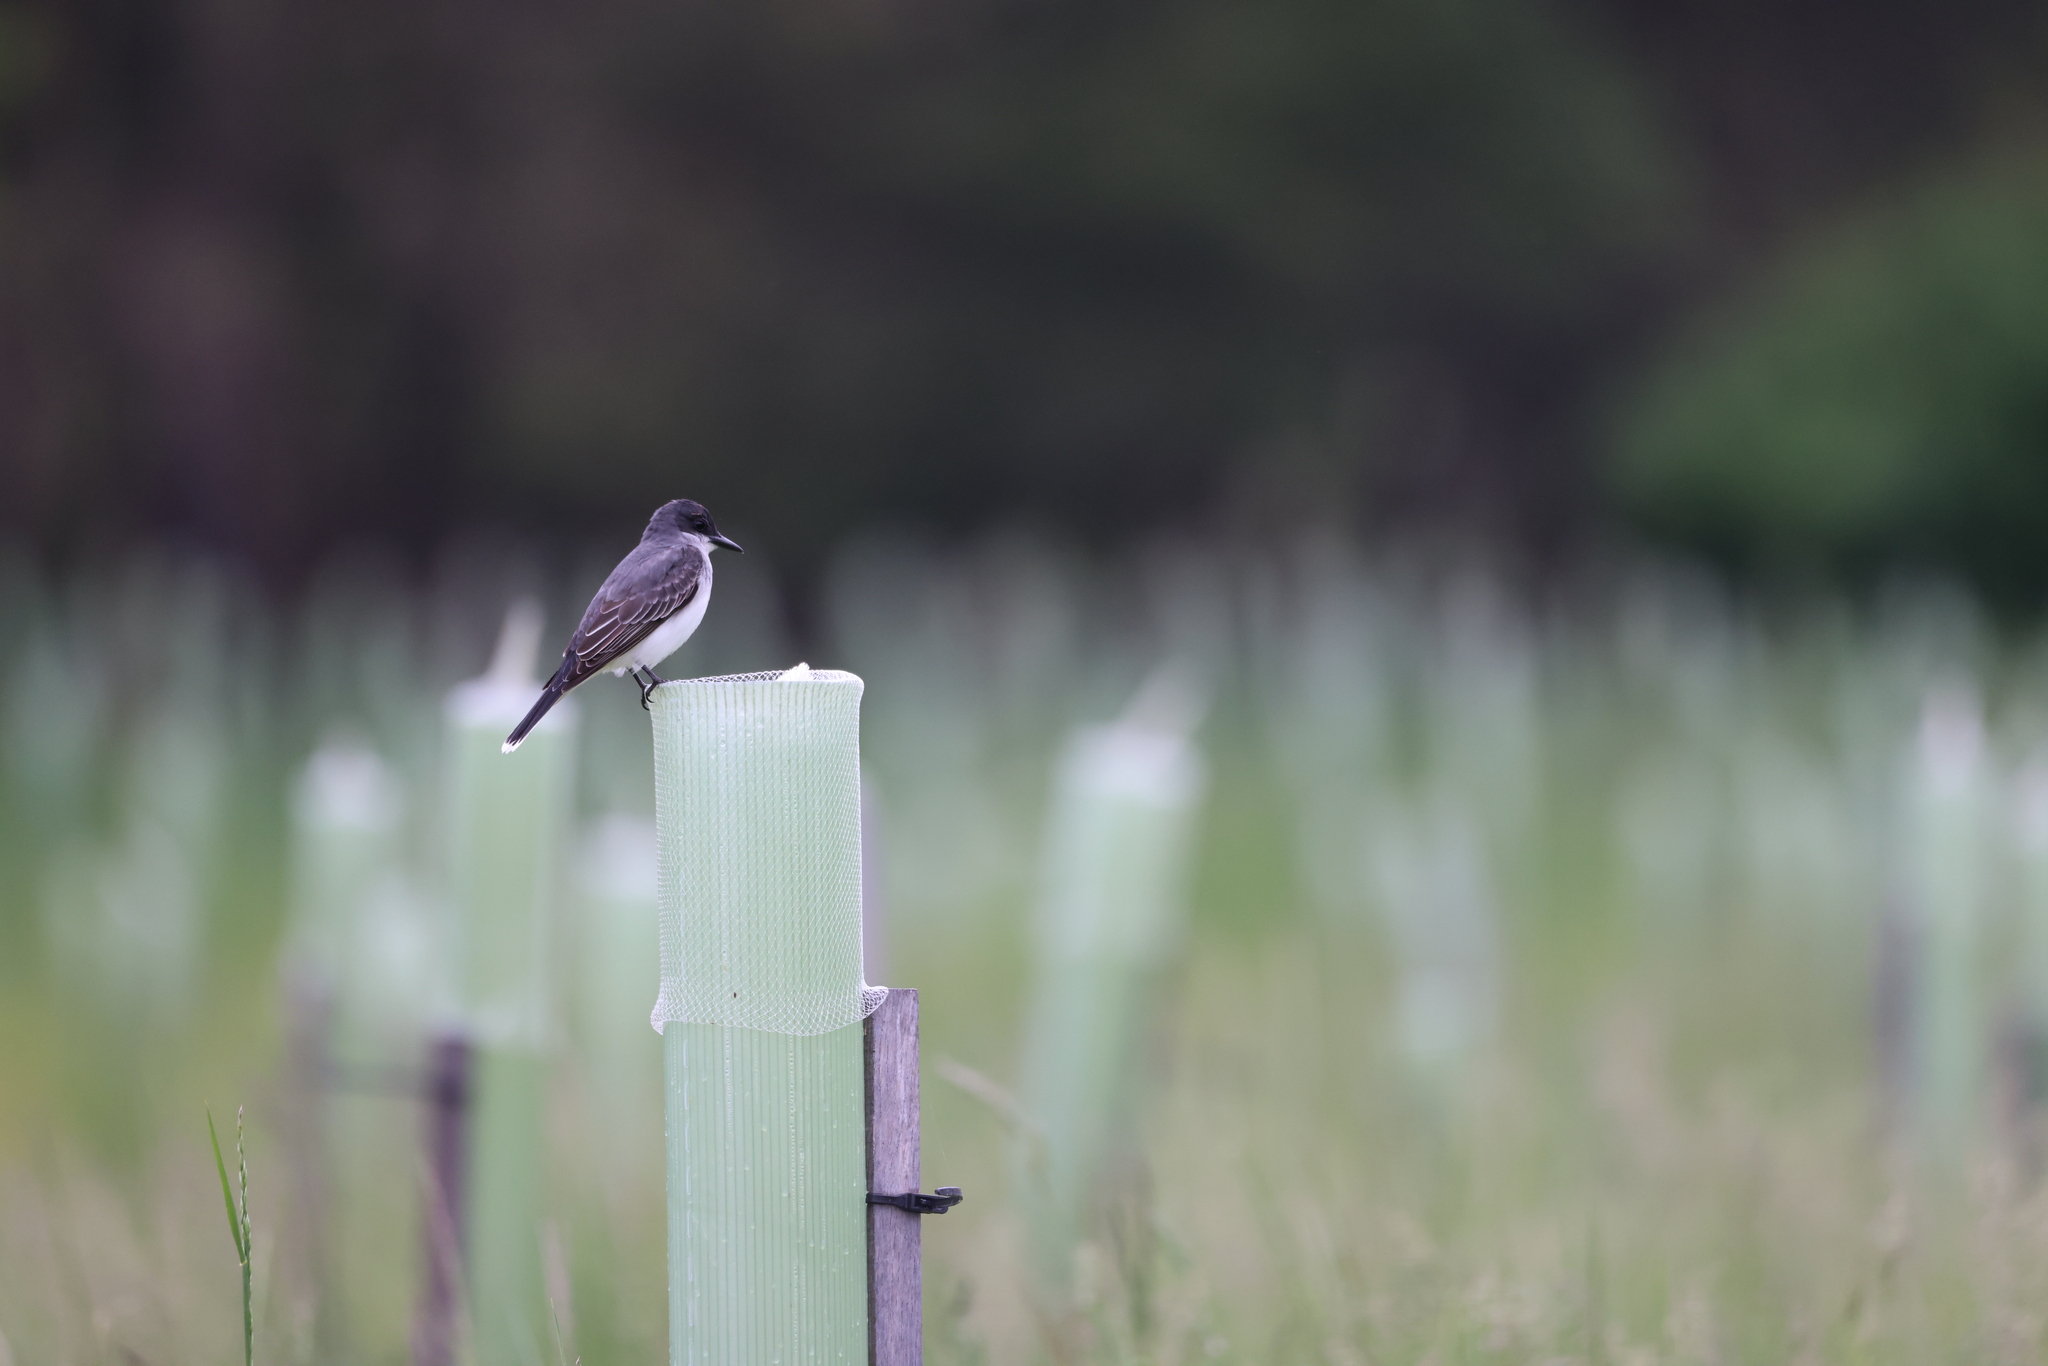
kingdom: Animalia
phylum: Chordata
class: Aves
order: Passeriformes
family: Tyrannidae
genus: Tyrannus
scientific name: Tyrannus tyrannus
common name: Eastern kingbird
